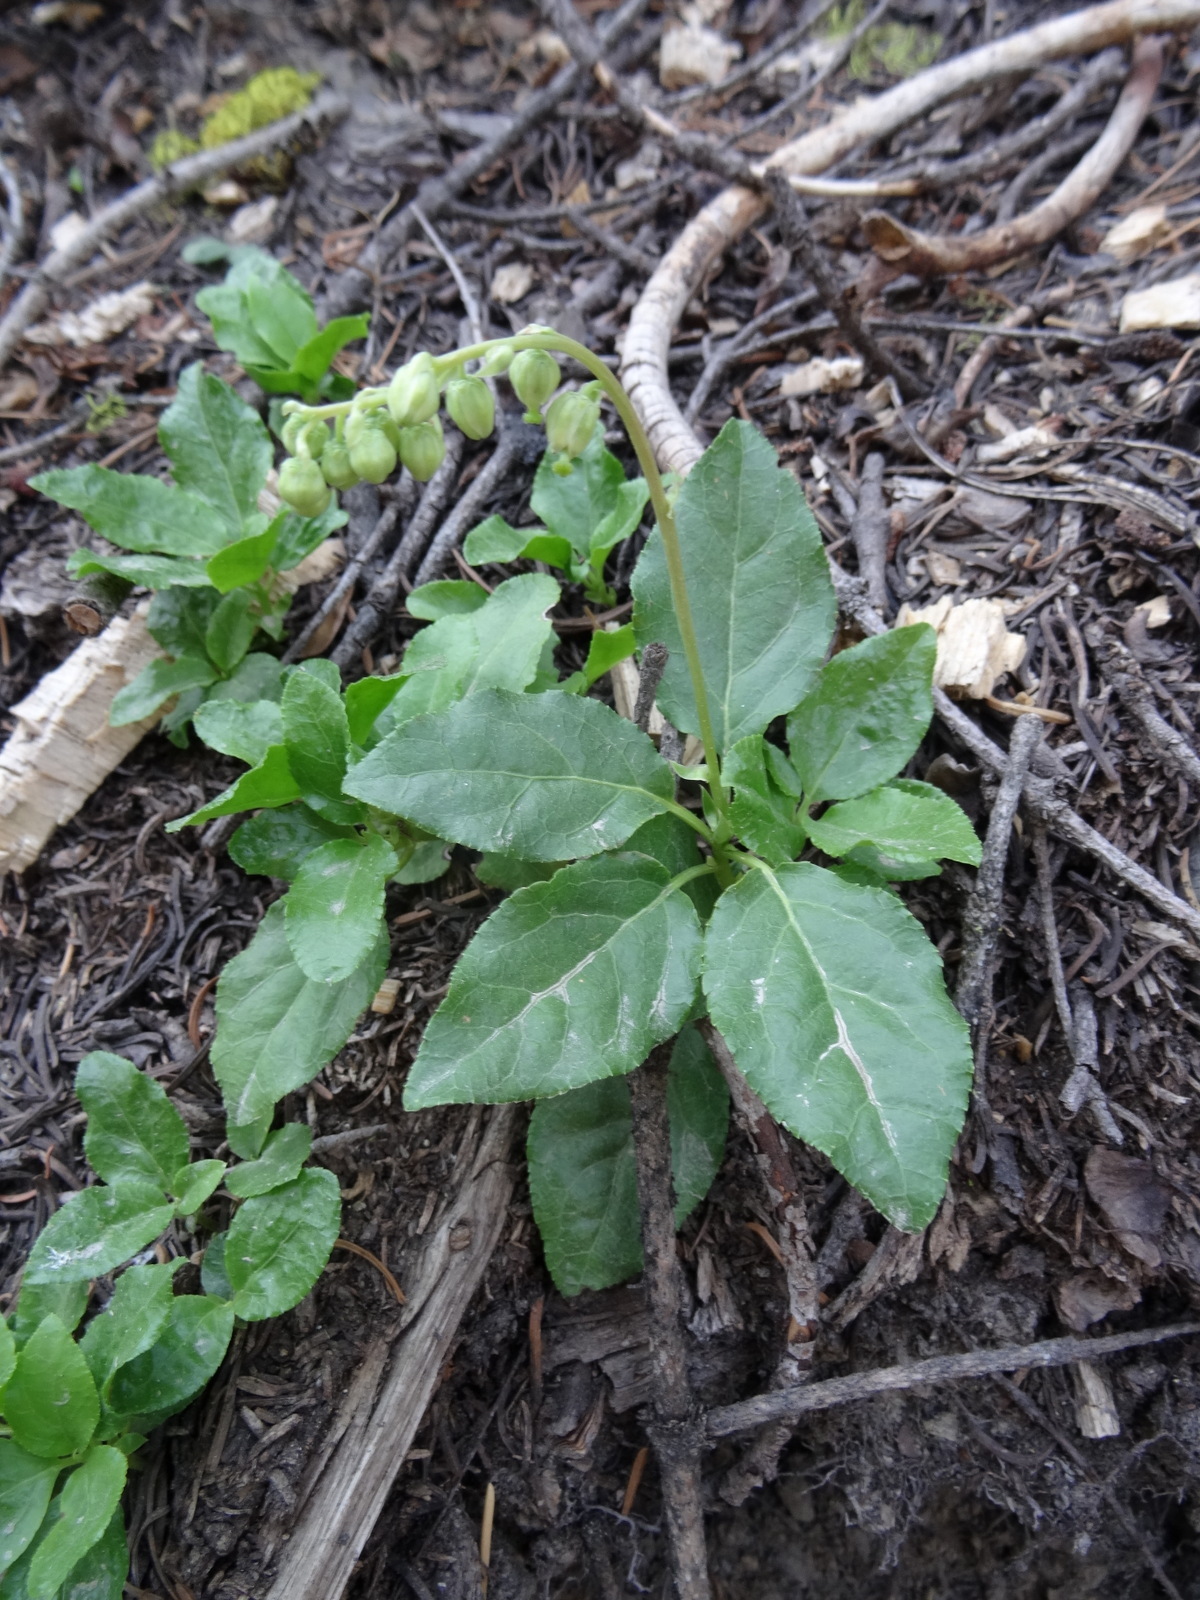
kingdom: Plantae
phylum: Tracheophyta
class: Magnoliopsida
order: Ericales
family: Ericaceae
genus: Orthilia
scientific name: Orthilia secunda
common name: One-sided orthilia
